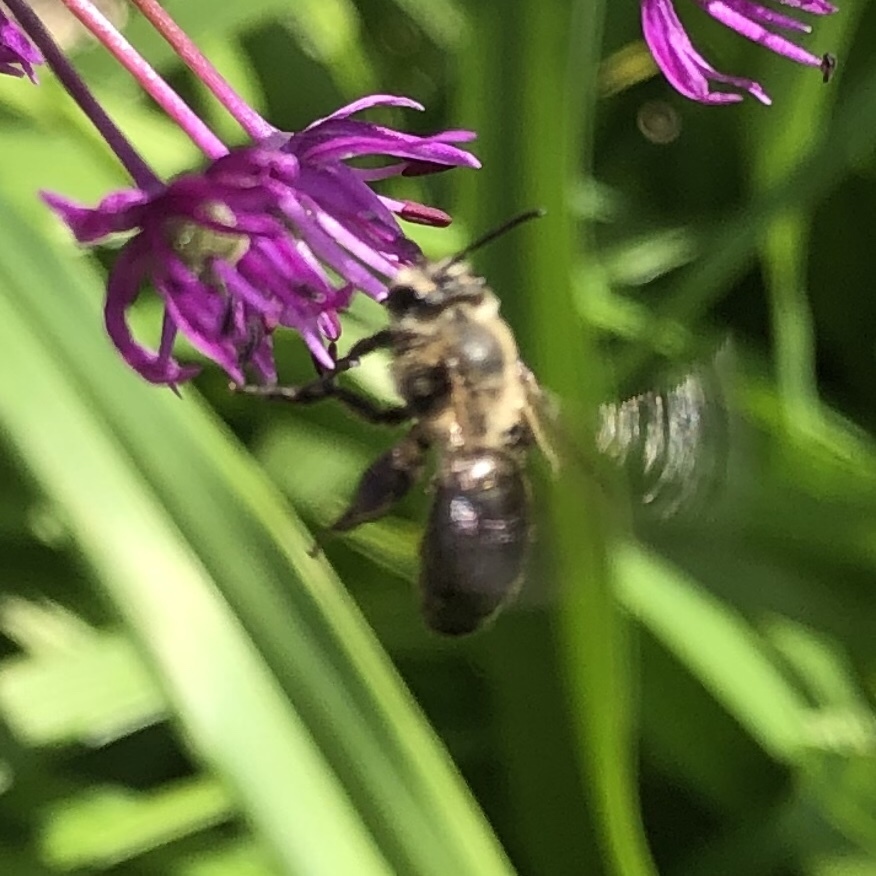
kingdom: Animalia
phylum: Arthropoda
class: Insecta
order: Hymenoptera
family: Andrenidae
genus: Andrena
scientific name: Andrena vicina
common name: Neighborly mining bee
